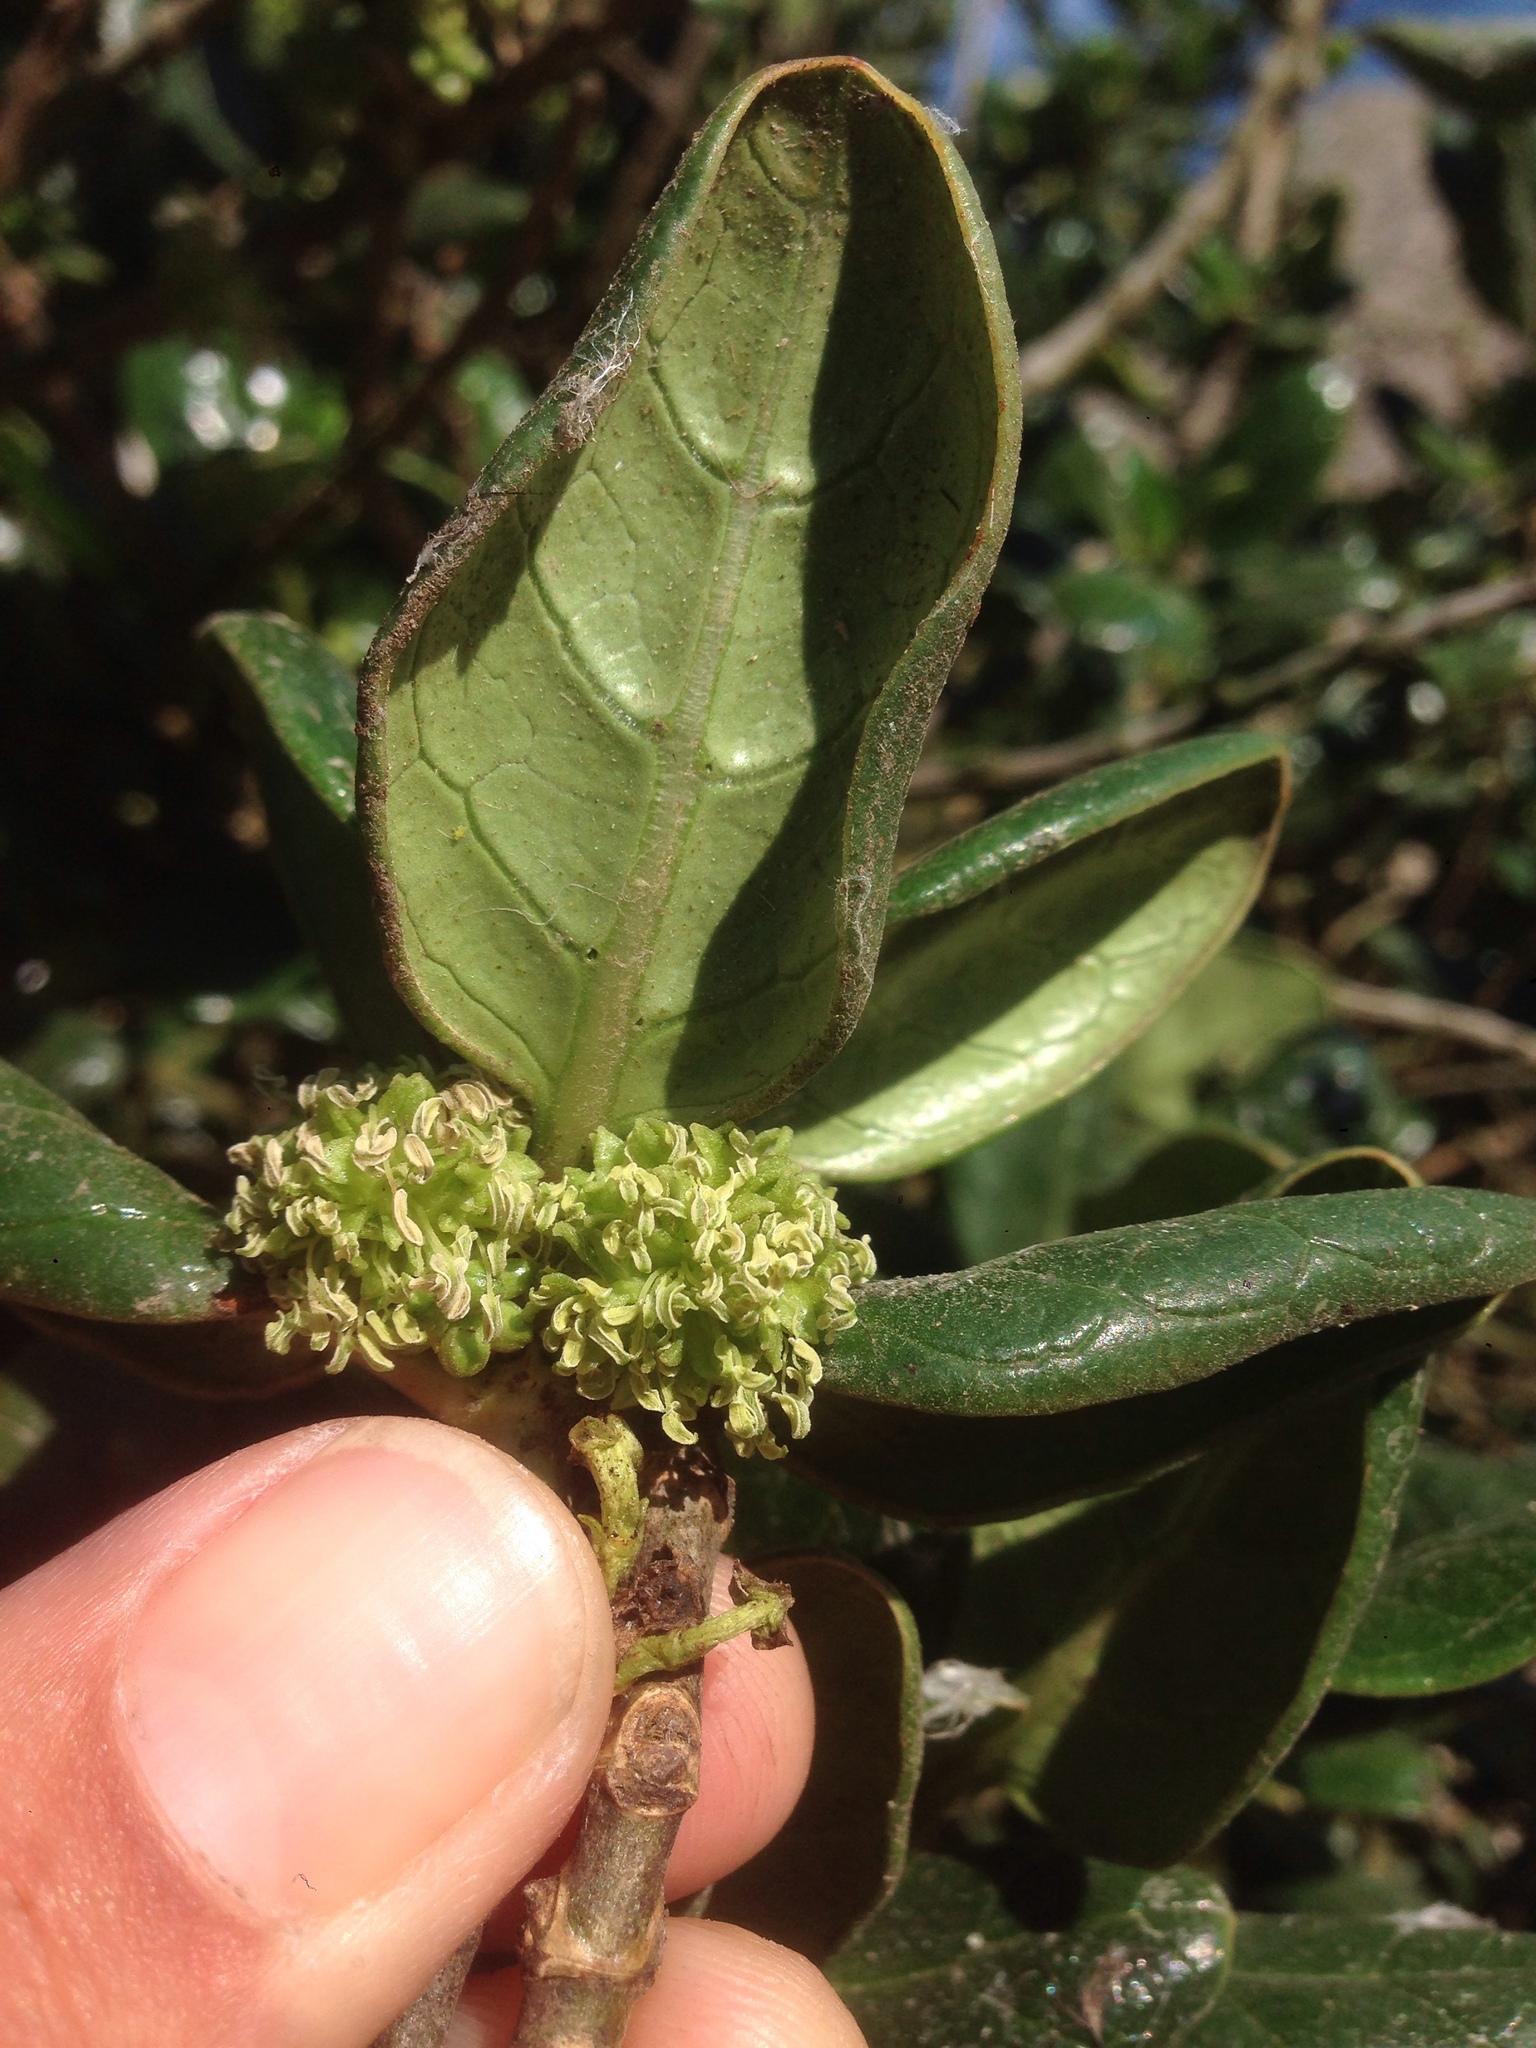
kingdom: Plantae
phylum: Tracheophyta
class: Magnoliopsida
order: Gentianales
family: Rubiaceae
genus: Coprosma
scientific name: Coprosma repens
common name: Tree bedstraw
